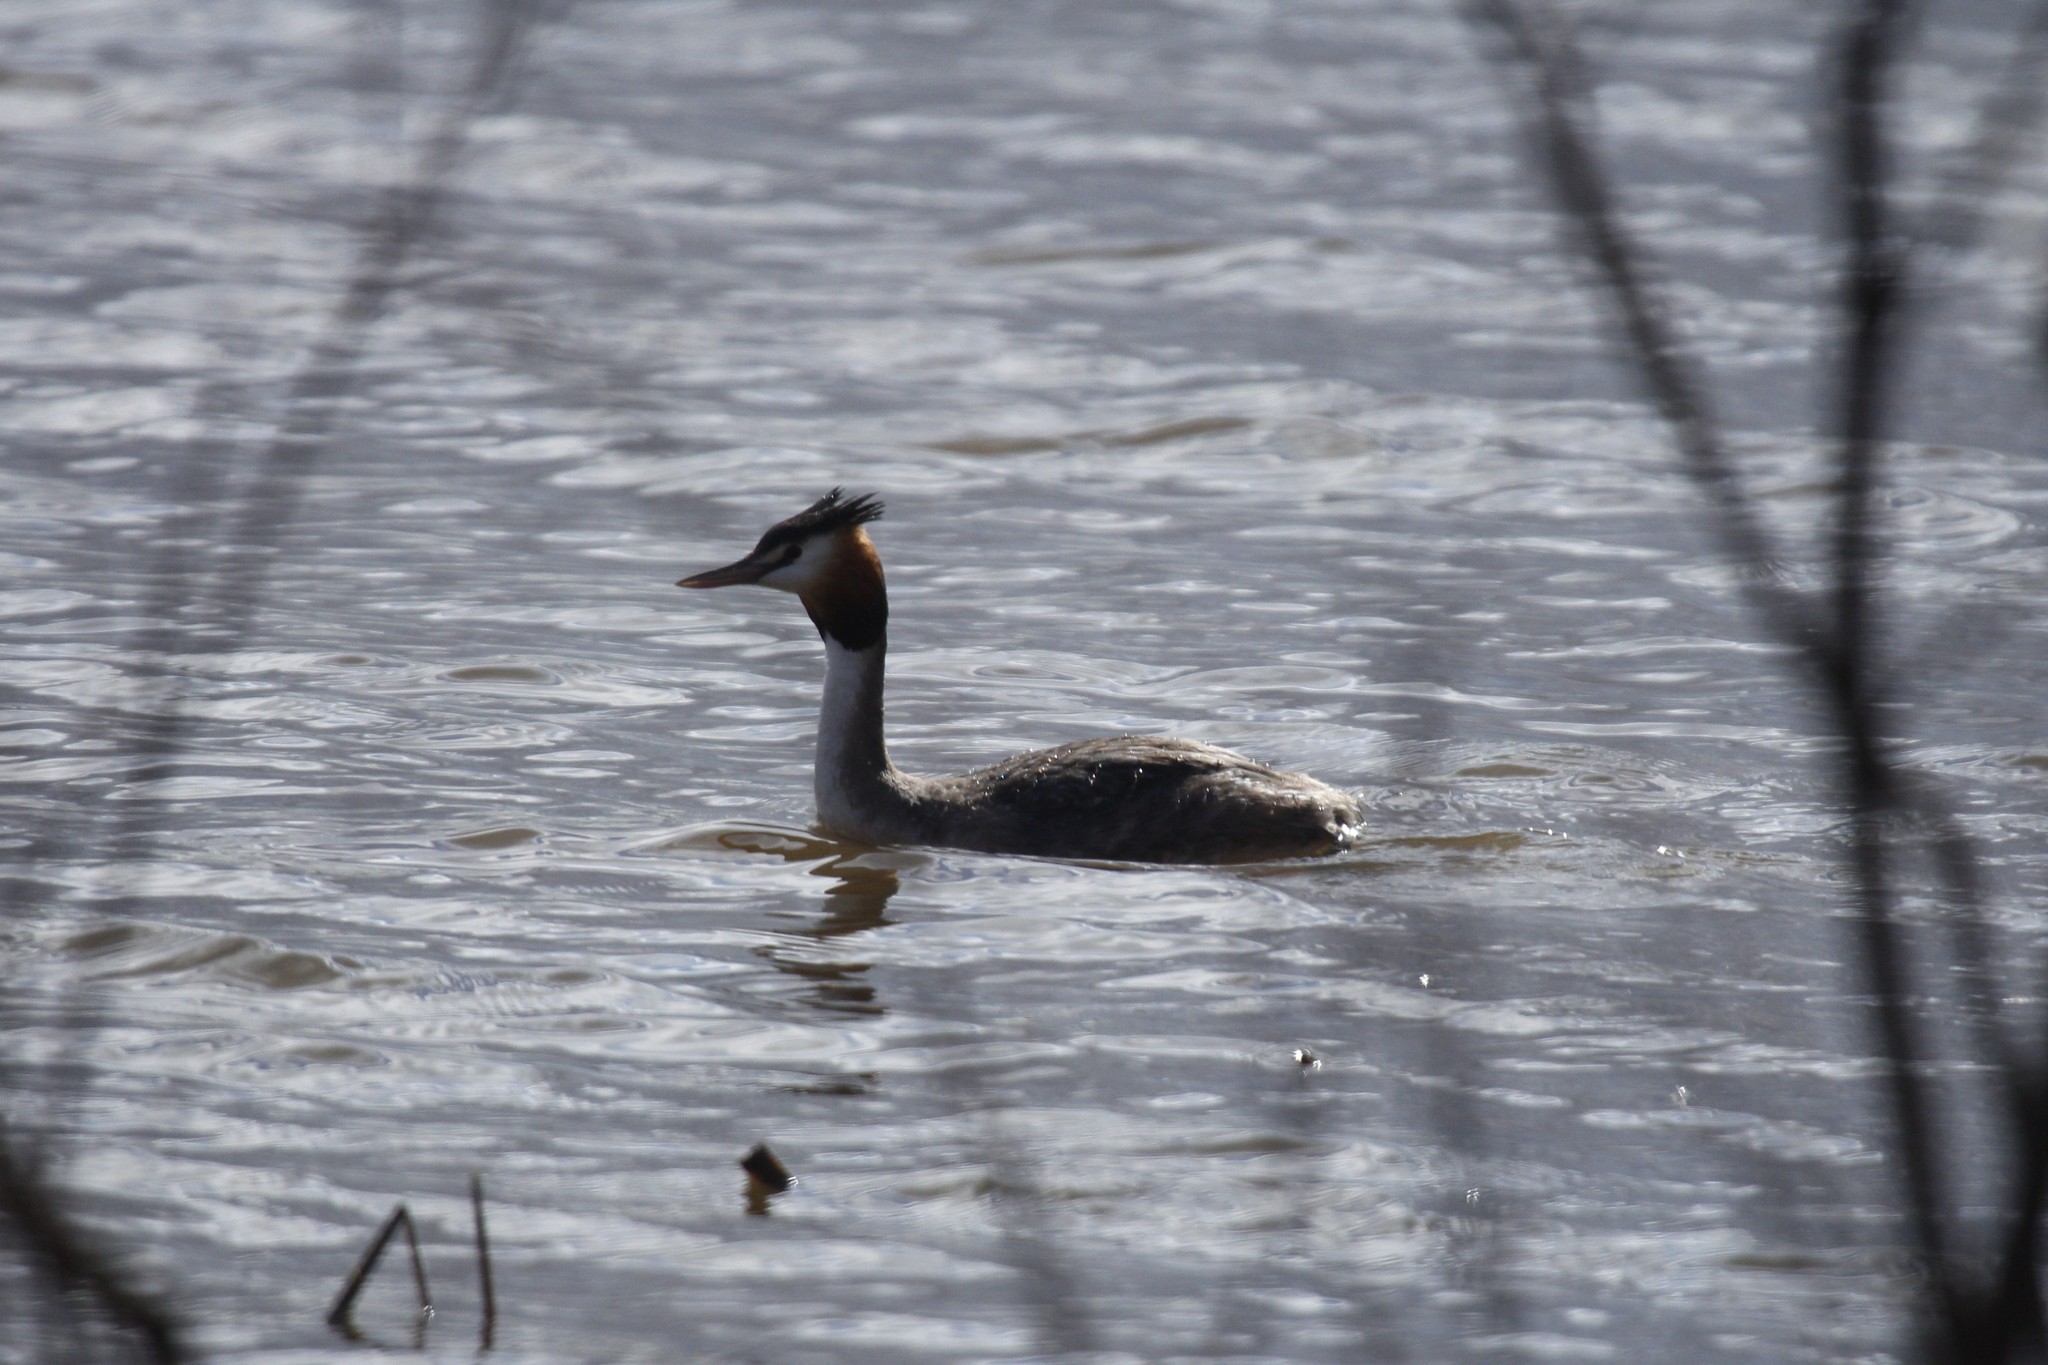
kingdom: Animalia
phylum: Chordata
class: Aves
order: Podicipediformes
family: Podicipedidae
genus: Podiceps
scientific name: Podiceps cristatus
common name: Great crested grebe
